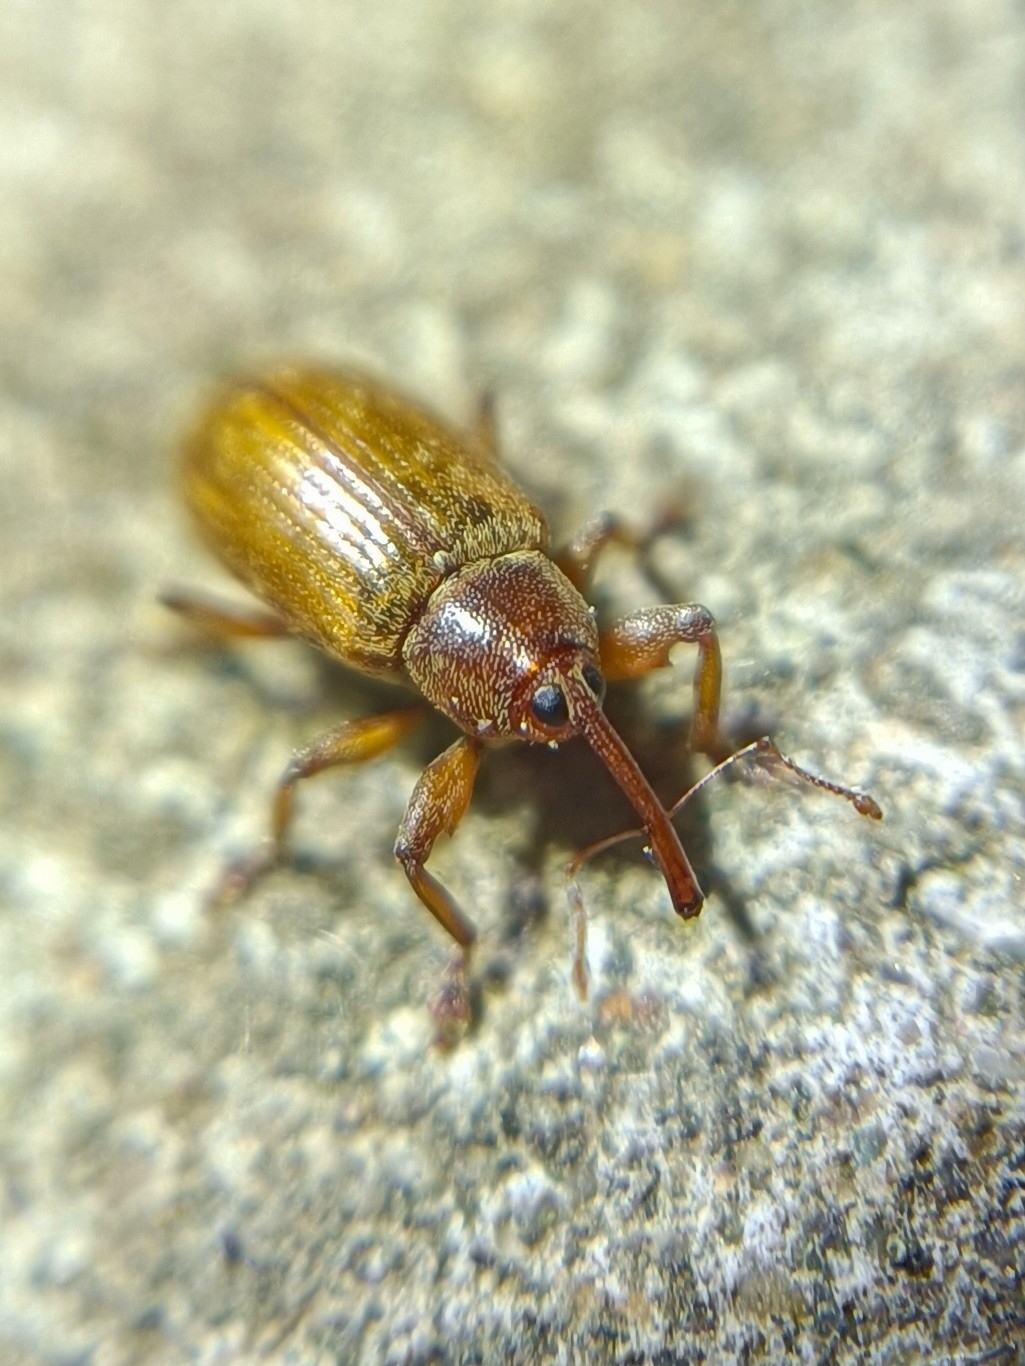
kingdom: Animalia
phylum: Arthropoda
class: Insecta
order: Coleoptera
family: Curculionidae
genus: Dorytomus
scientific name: Dorytomus tortrix
